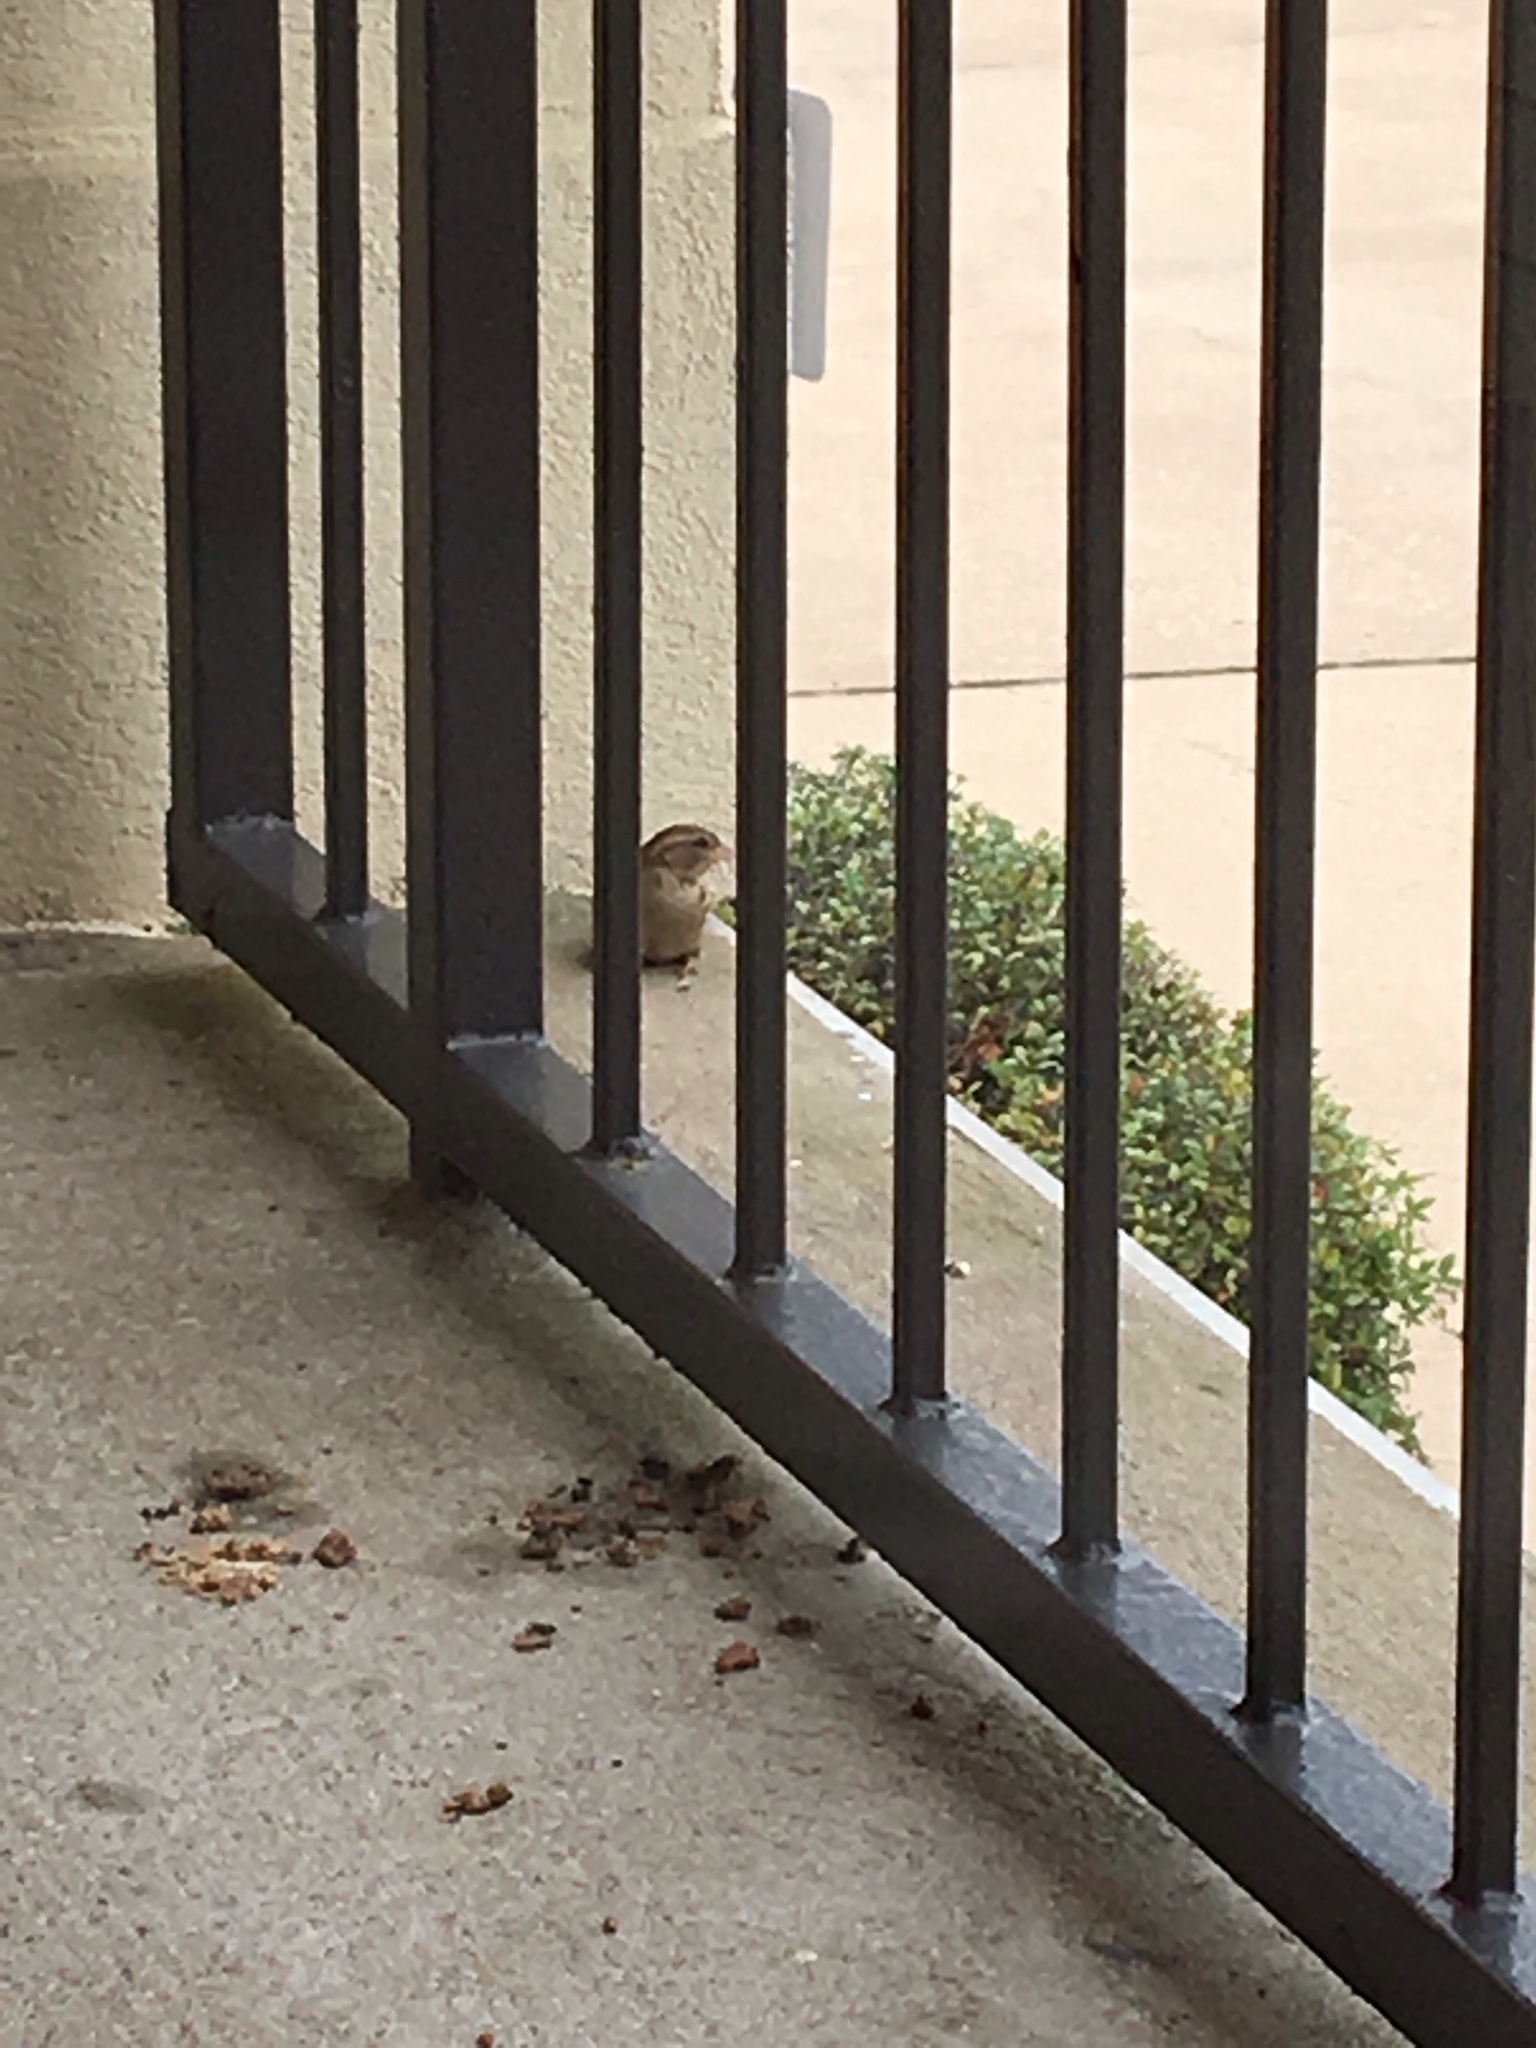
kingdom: Animalia
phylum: Chordata
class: Aves
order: Passeriformes
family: Passeridae
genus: Passer
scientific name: Passer domesticus
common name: House sparrow
